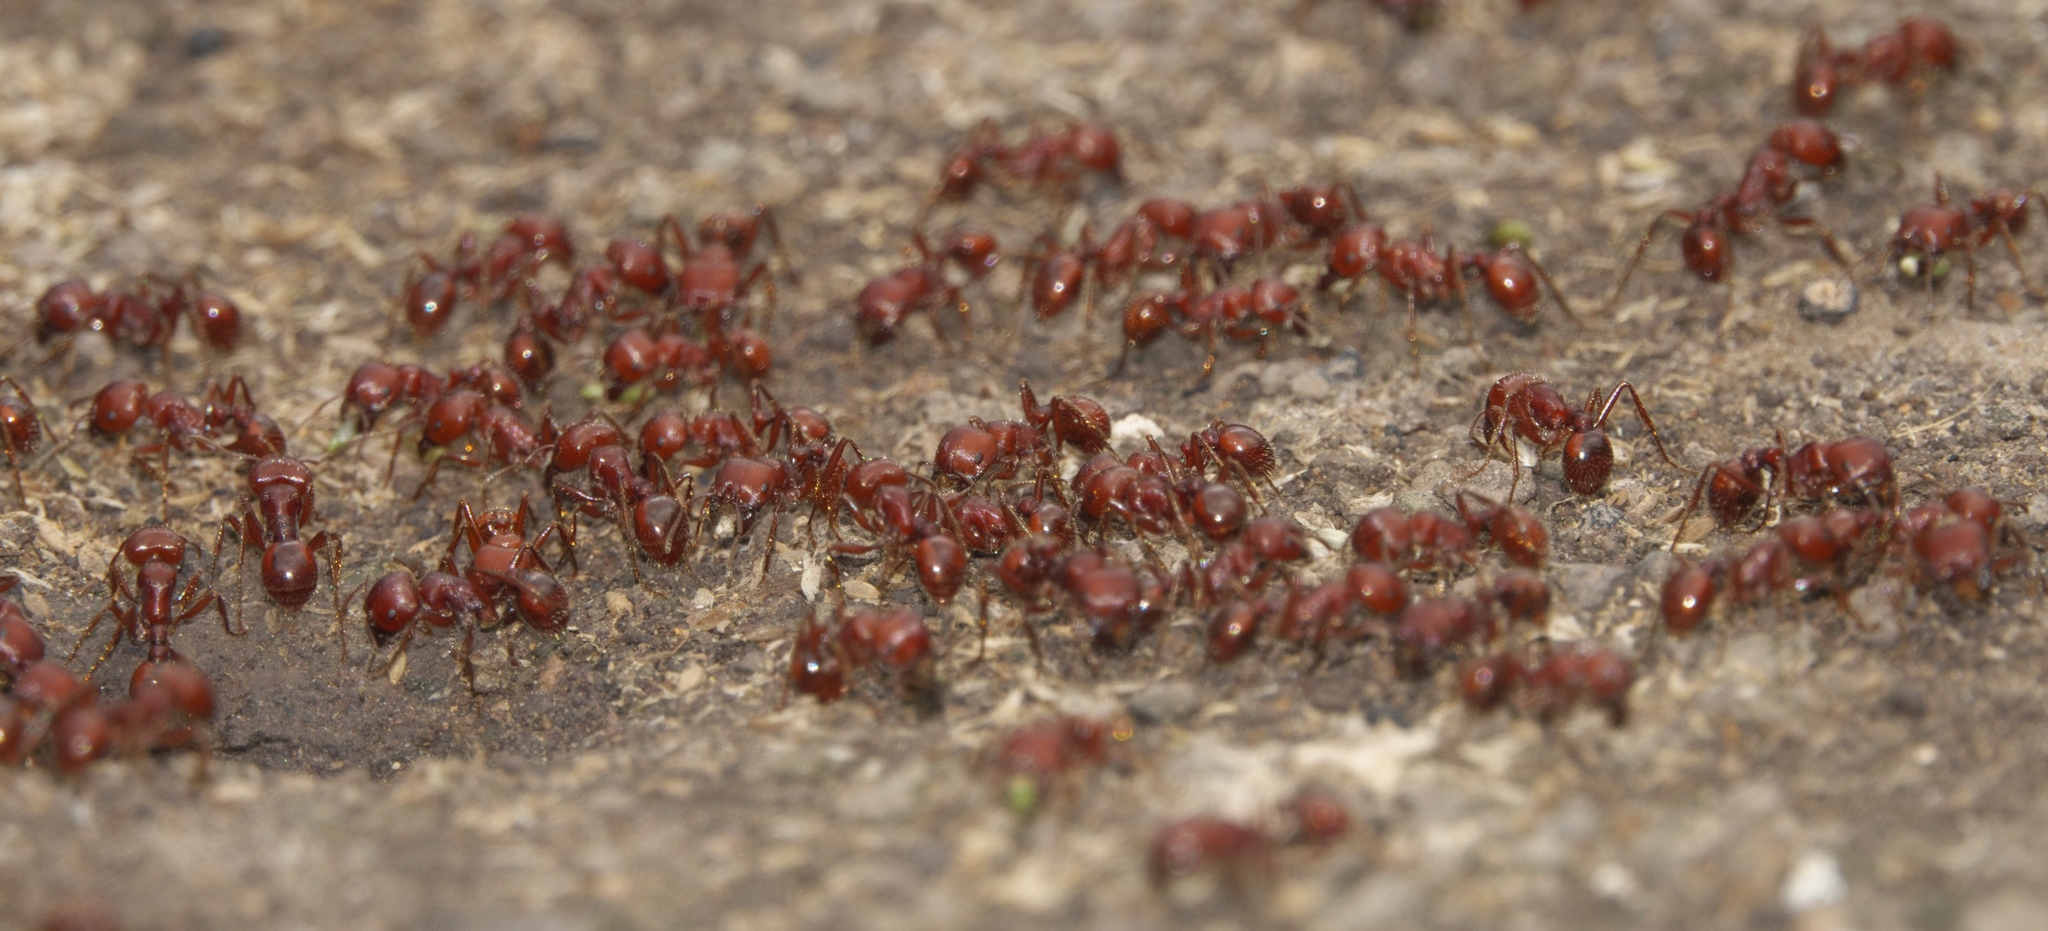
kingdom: Animalia
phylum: Arthropoda
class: Insecta
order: Hymenoptera
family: Formicidae
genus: Pogonomyrmex
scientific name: Pogonomyrmex barbatus
